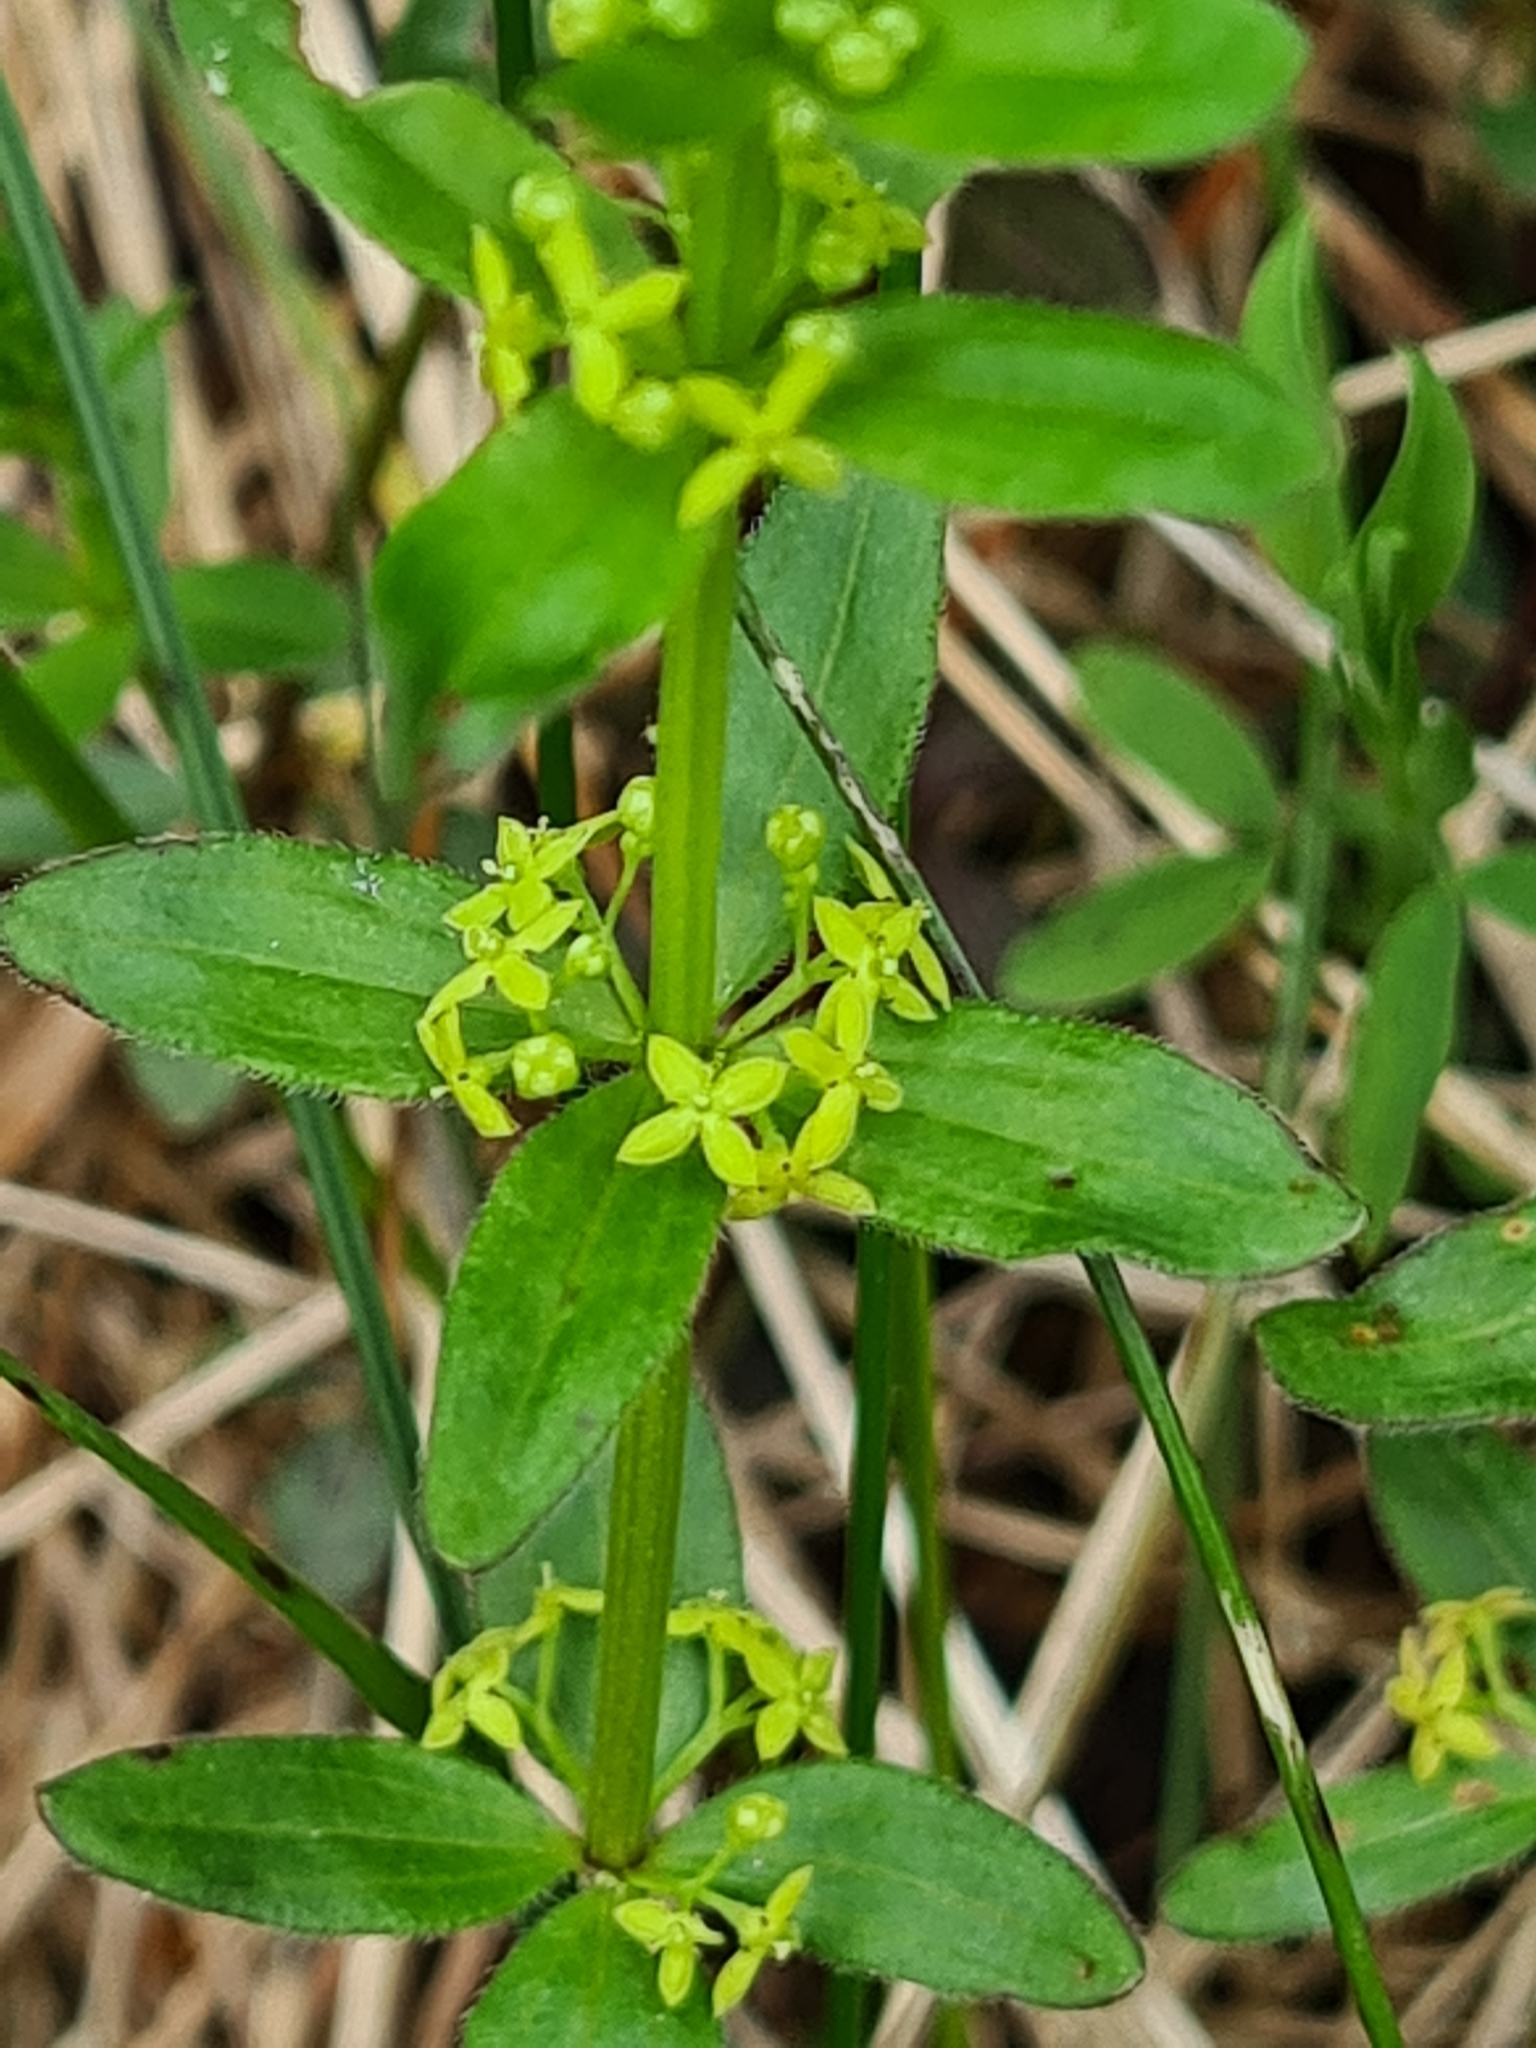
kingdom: Plantae
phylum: Tracheophyta
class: Magnoliopsida
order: Gentianales
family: Rubiaceae
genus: Cruciata
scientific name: Cruciata glabra
